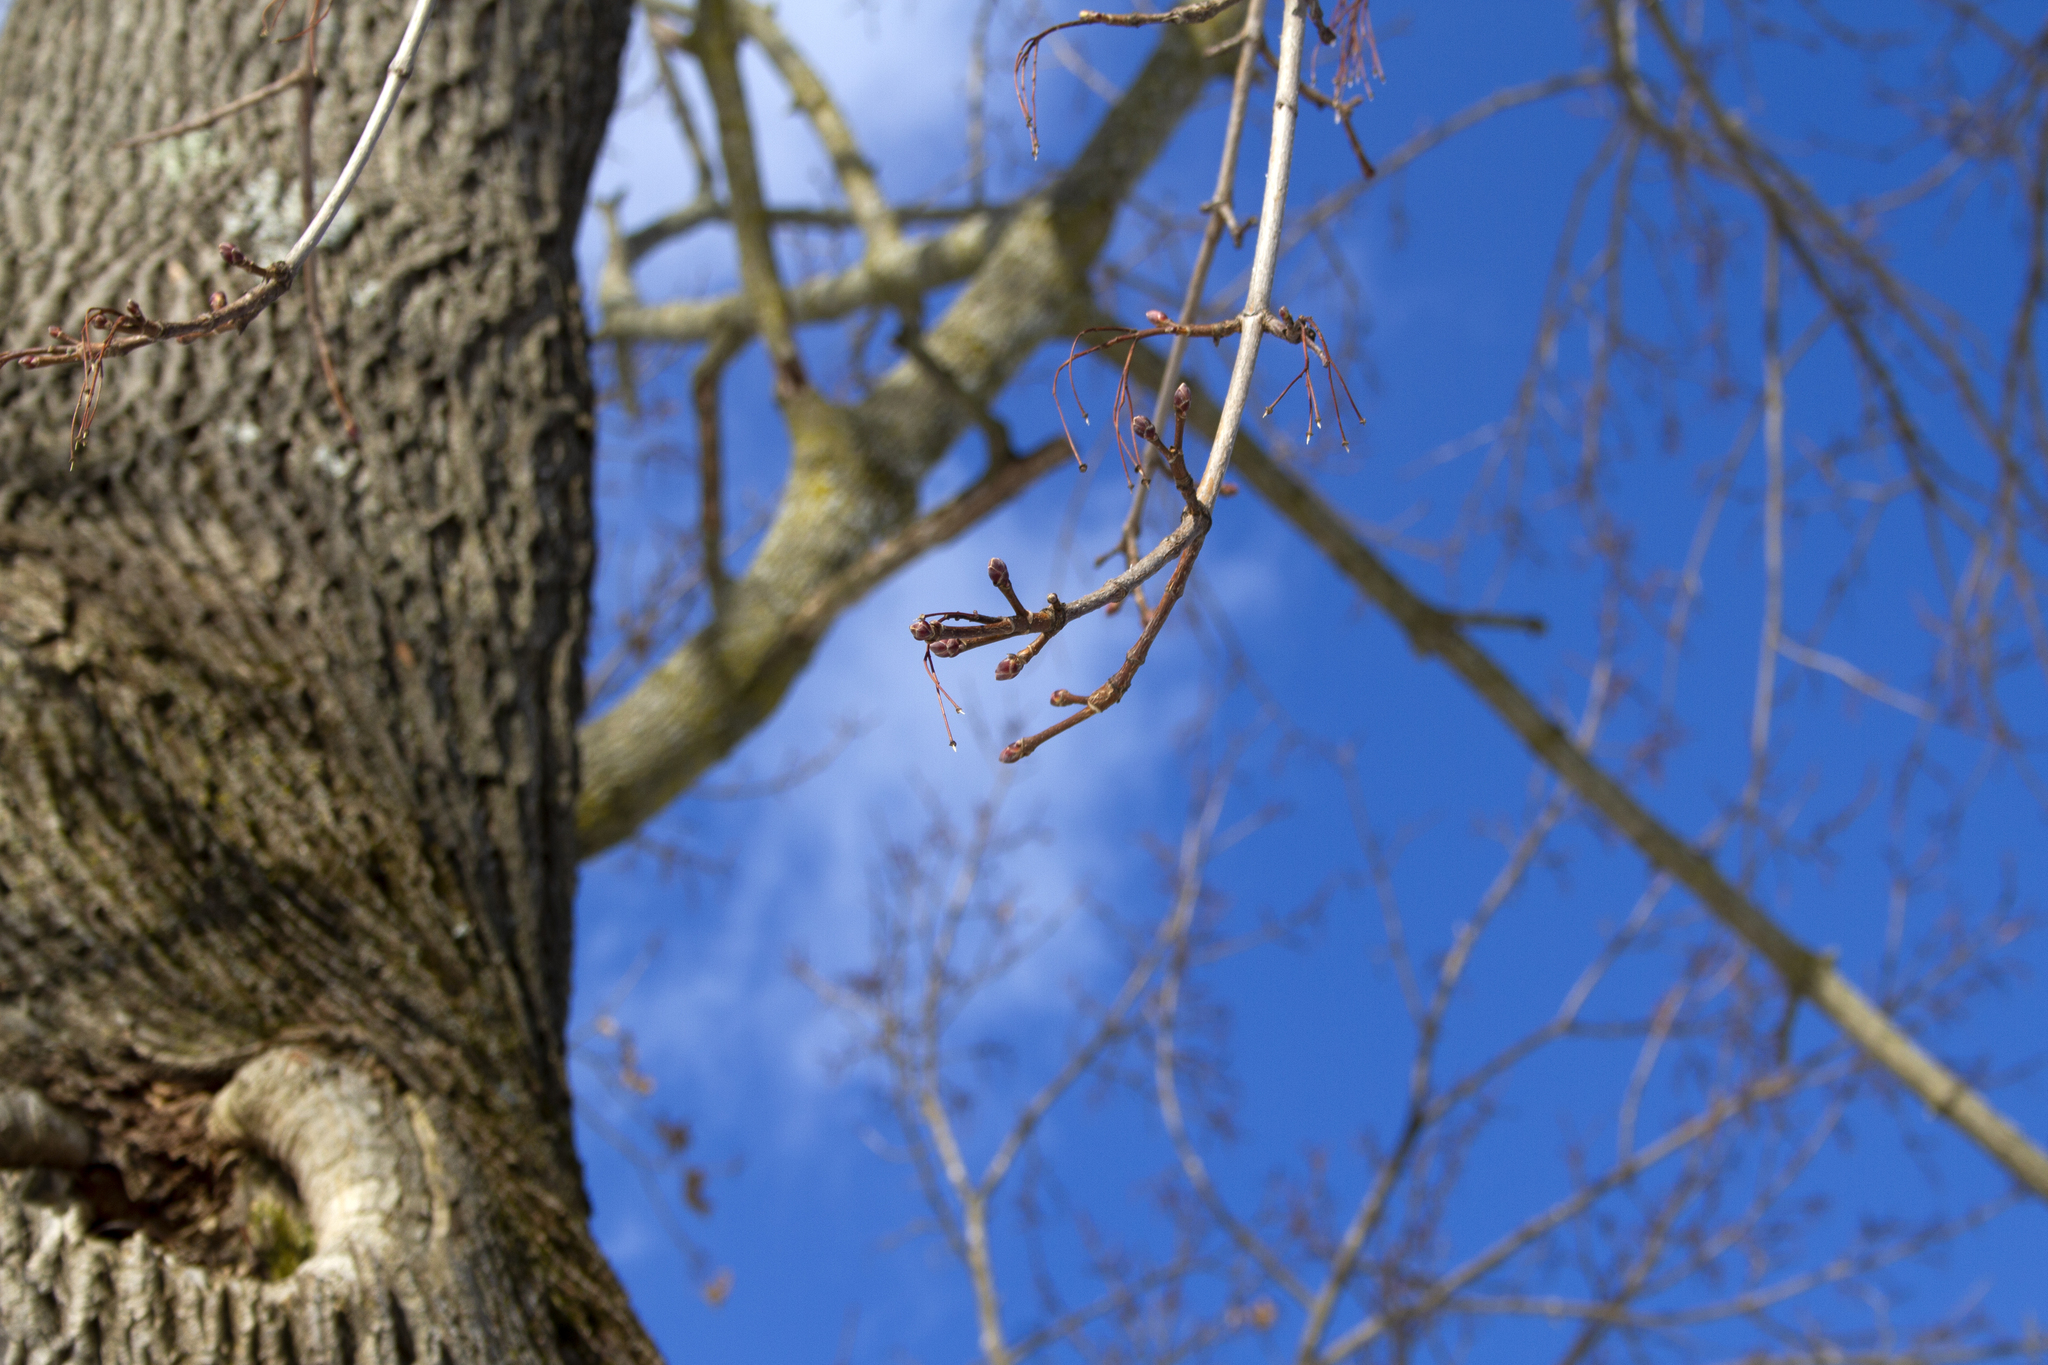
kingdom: Plantae
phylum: Tracheophyta
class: Magnoliopsida
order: Sapindales
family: Sapindaceae
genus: Acer
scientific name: Acer platanoides
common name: Norway maple
